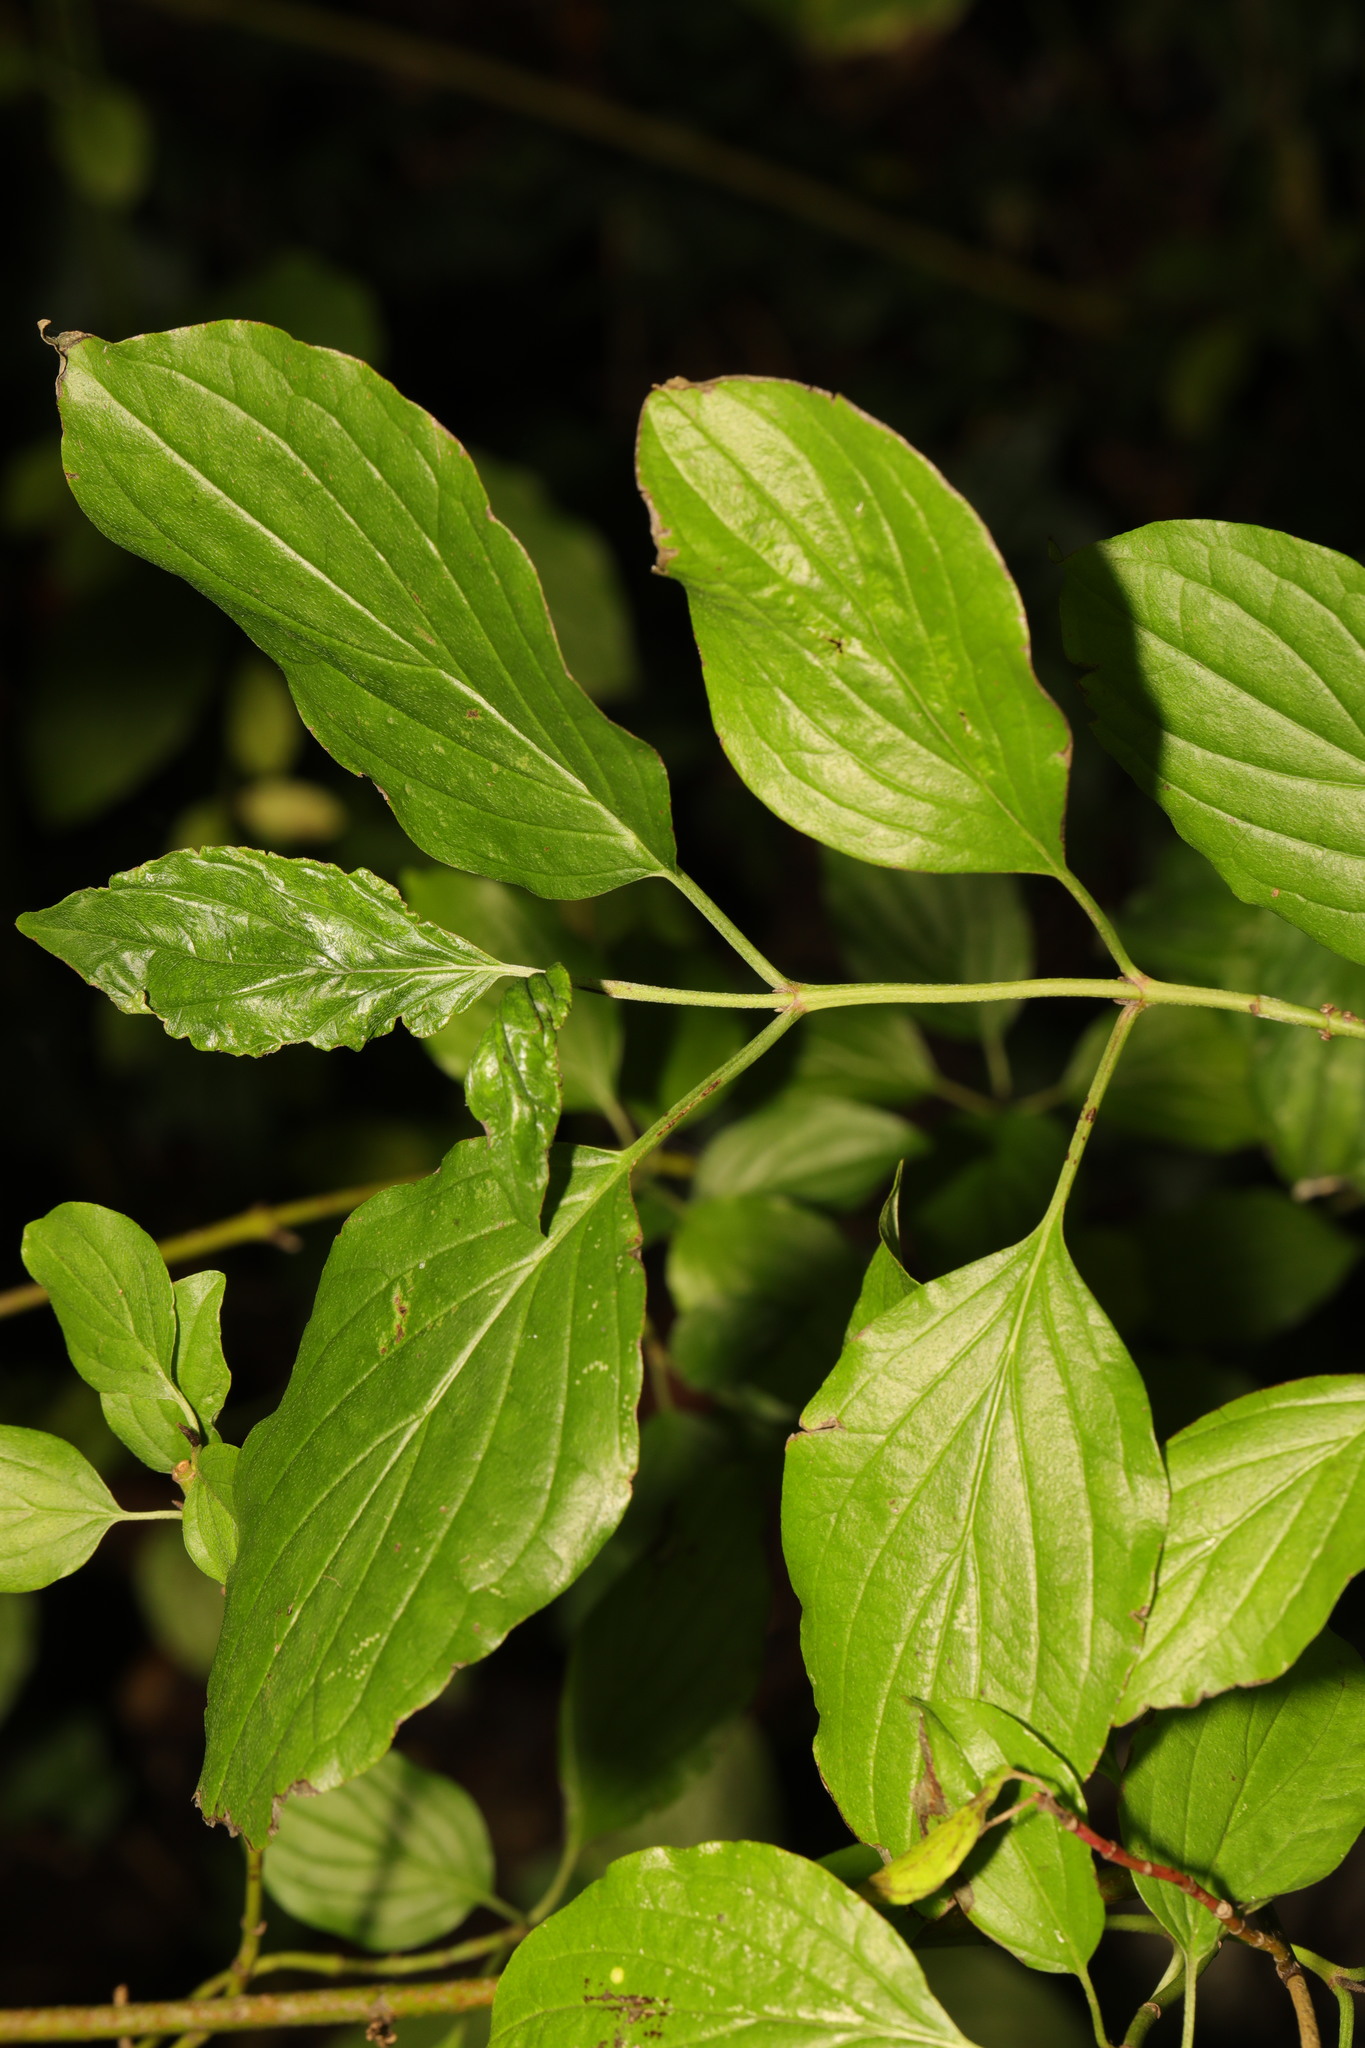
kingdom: Plantae
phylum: Tracheophyta
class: Magnoliopsida
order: Cornales
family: Cornaceae
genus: Cornus
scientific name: Cornus sanguinea
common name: Dogwood
